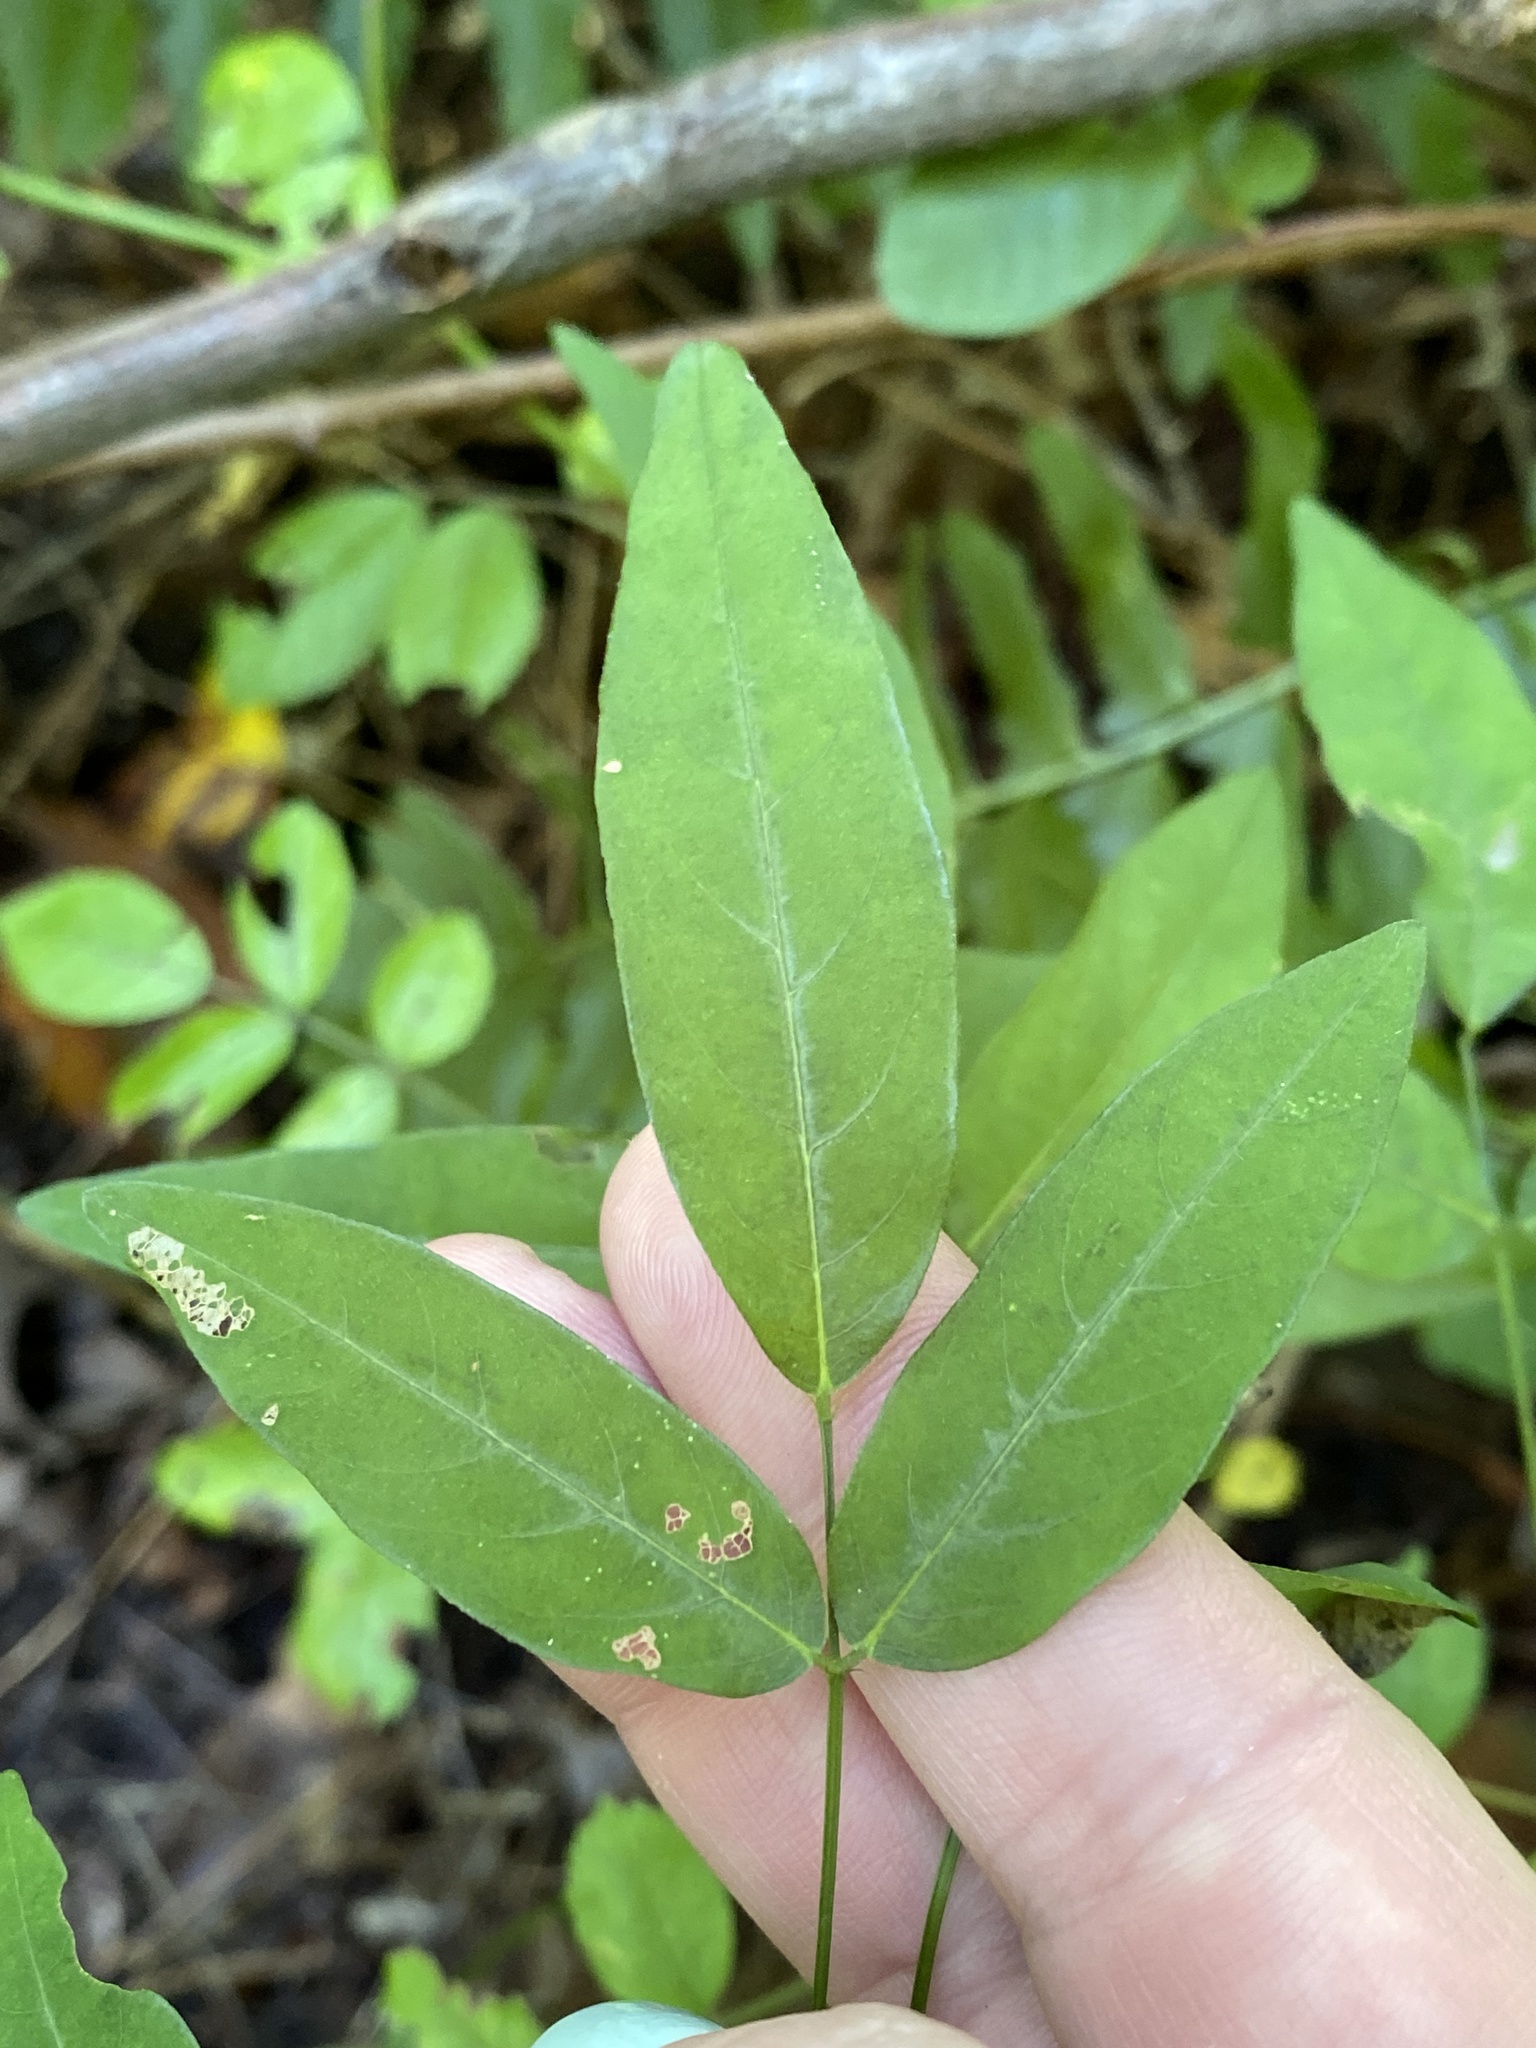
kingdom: Plantae
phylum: Tracheophyta
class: Magnoliopsida
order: Fabales
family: Fabaceae
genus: Desmodium
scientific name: Desmodium paniculatum
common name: Panicled tick-clover
